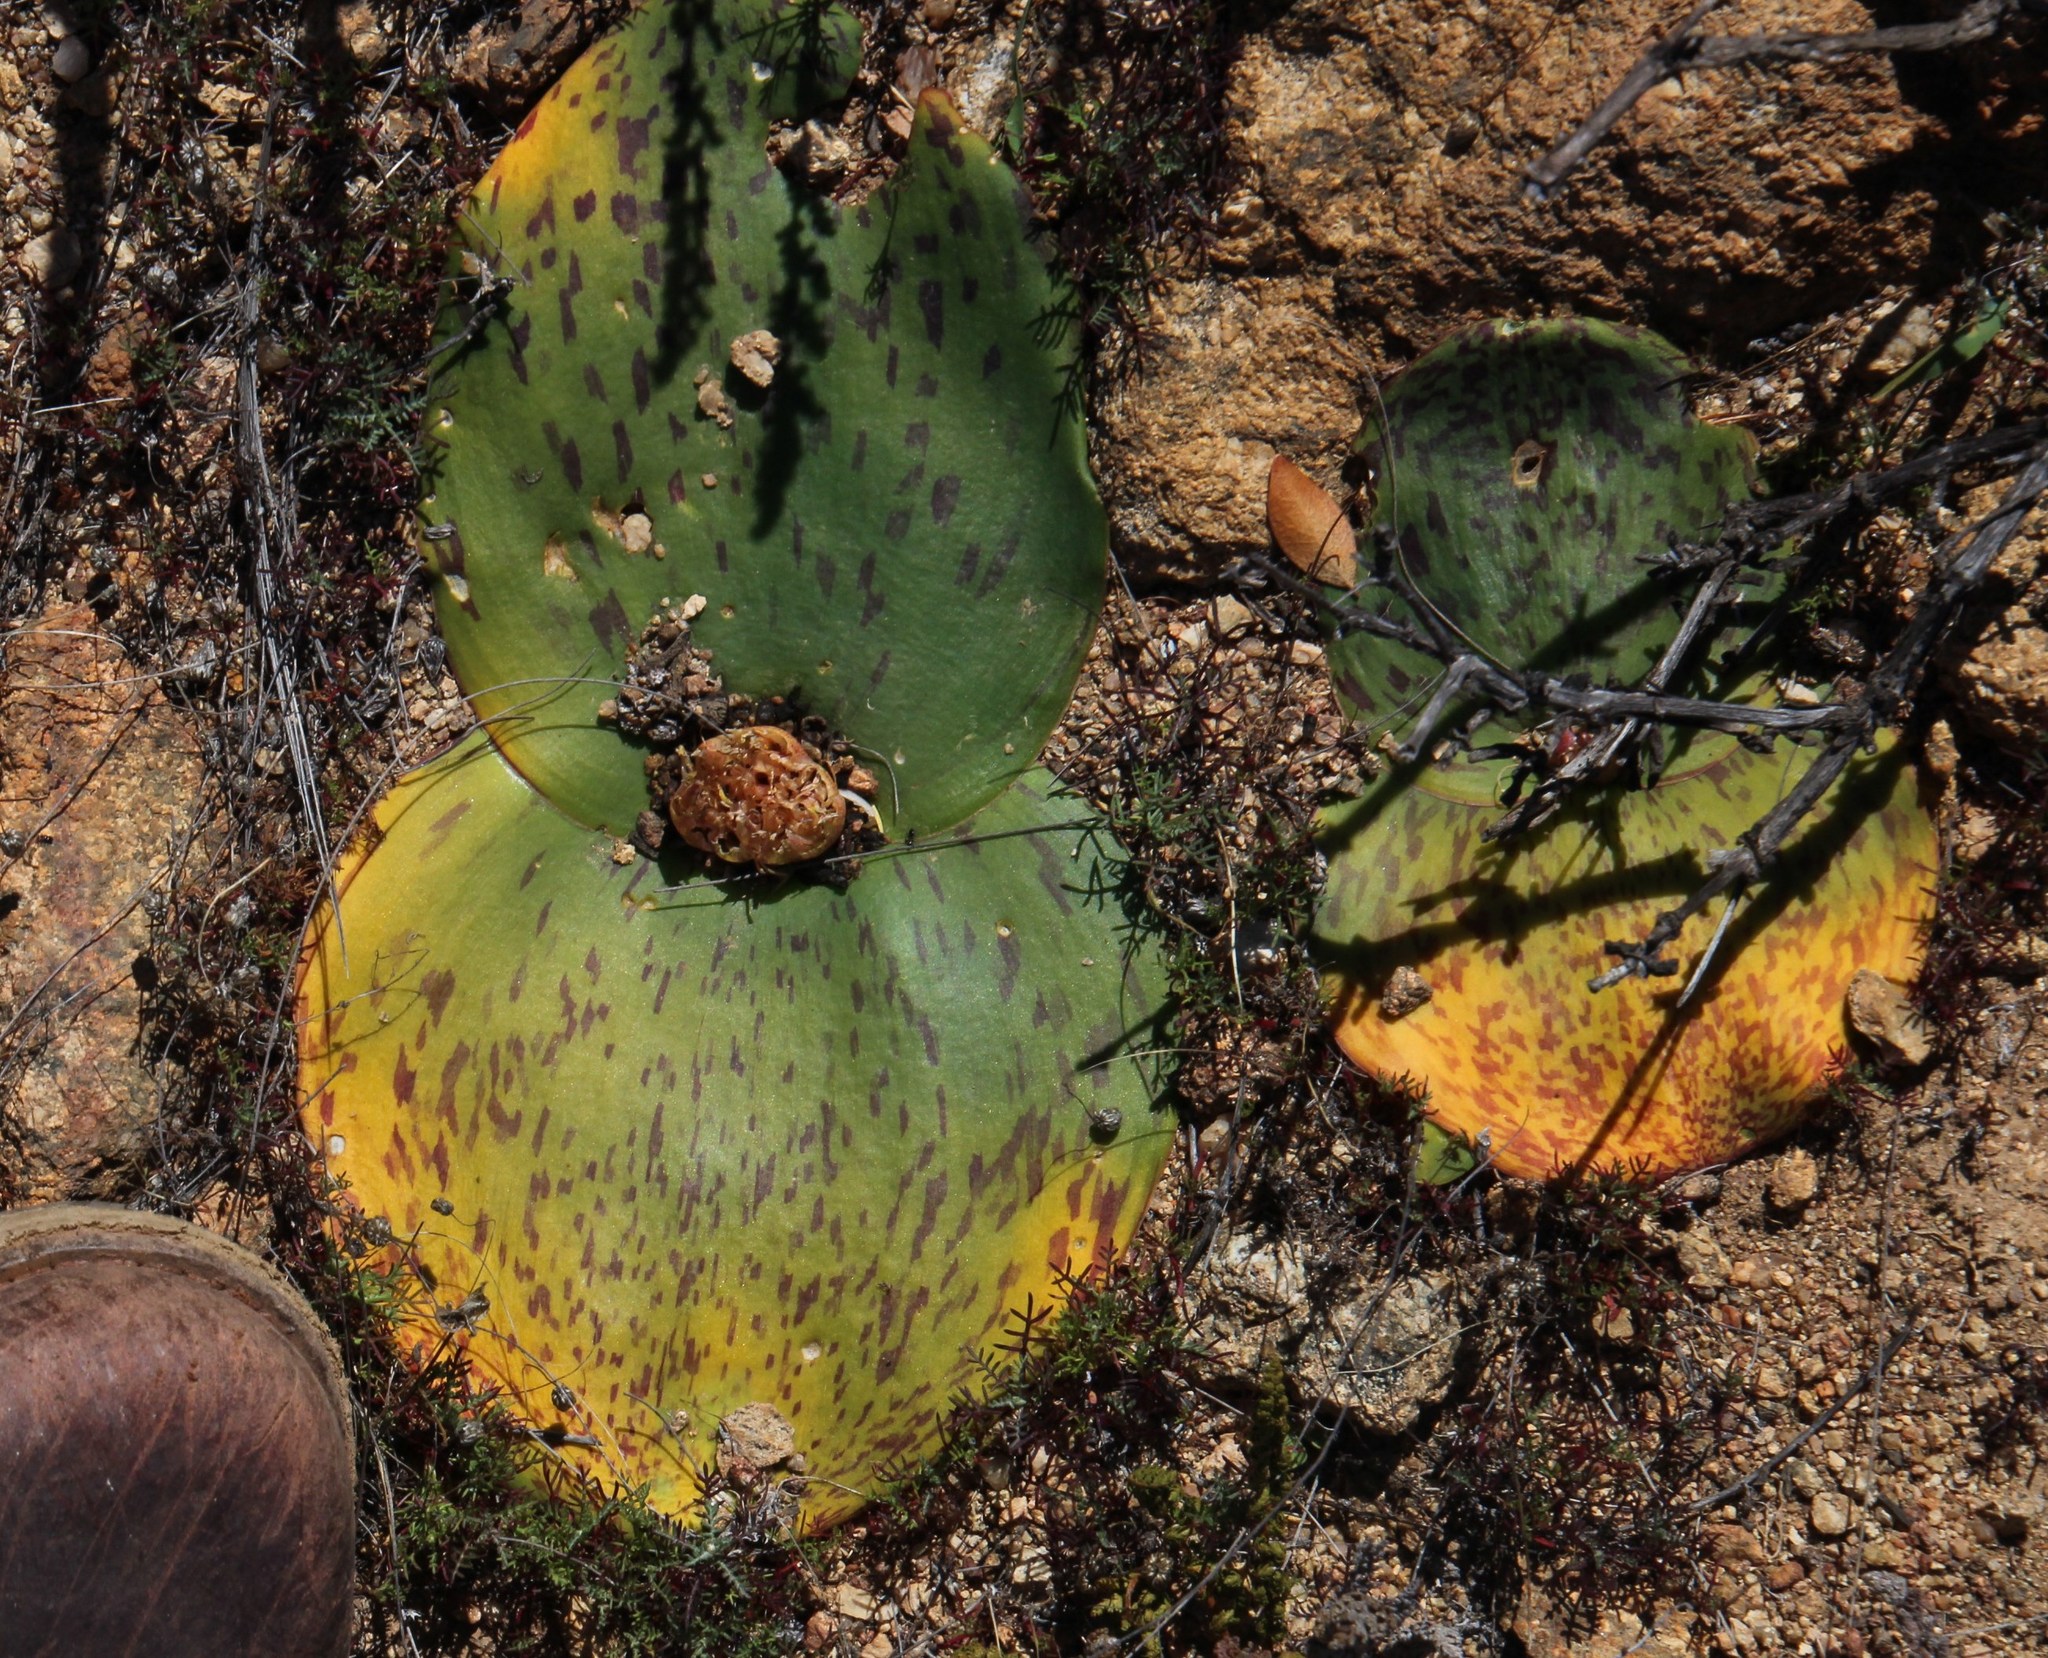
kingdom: Plantae
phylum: Tracheophyta
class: Liliopsida
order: Asparagales
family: Asparagaceae
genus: Massonia
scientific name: Massonia depressa
